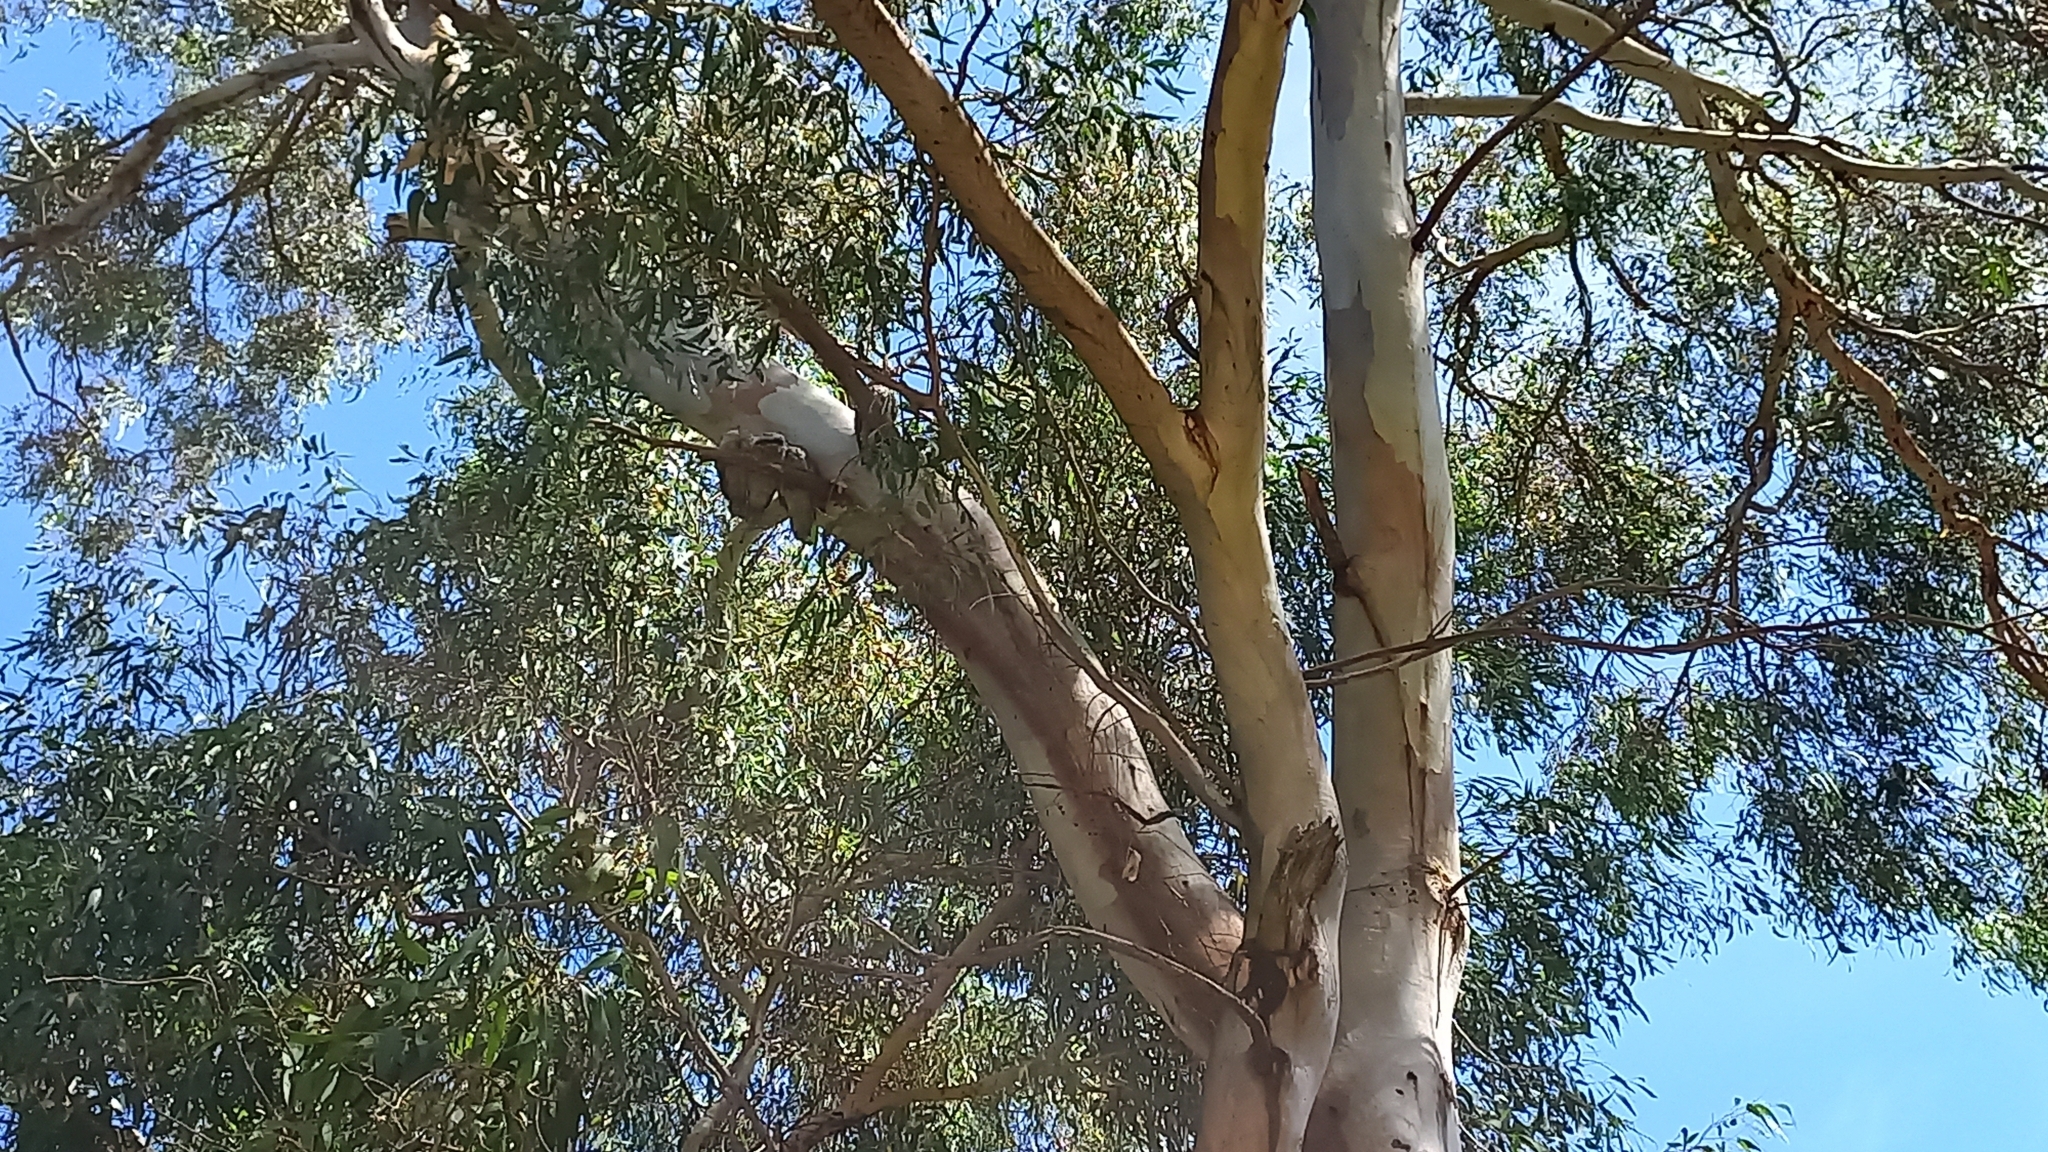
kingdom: Animalia
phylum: Chordata
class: Aves
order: Caprimulgiformes
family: Podargidae
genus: Podargus
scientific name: Podargus strigoides
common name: Tawny frogmouth
